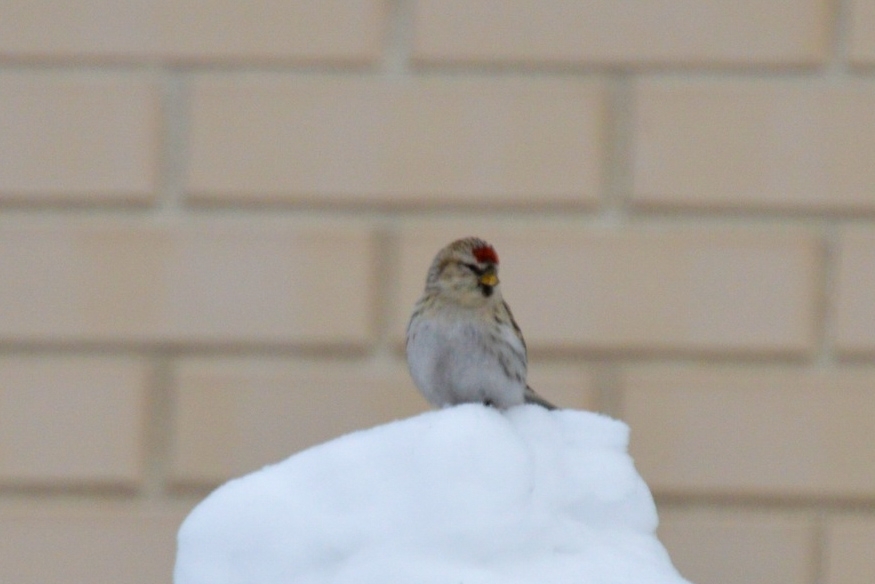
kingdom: Animalia
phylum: Chordata
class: Aves
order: Passeriformes
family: Fringillidae
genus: Acanthis
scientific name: Acanthis hornemanni
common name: Arctic redpoll
